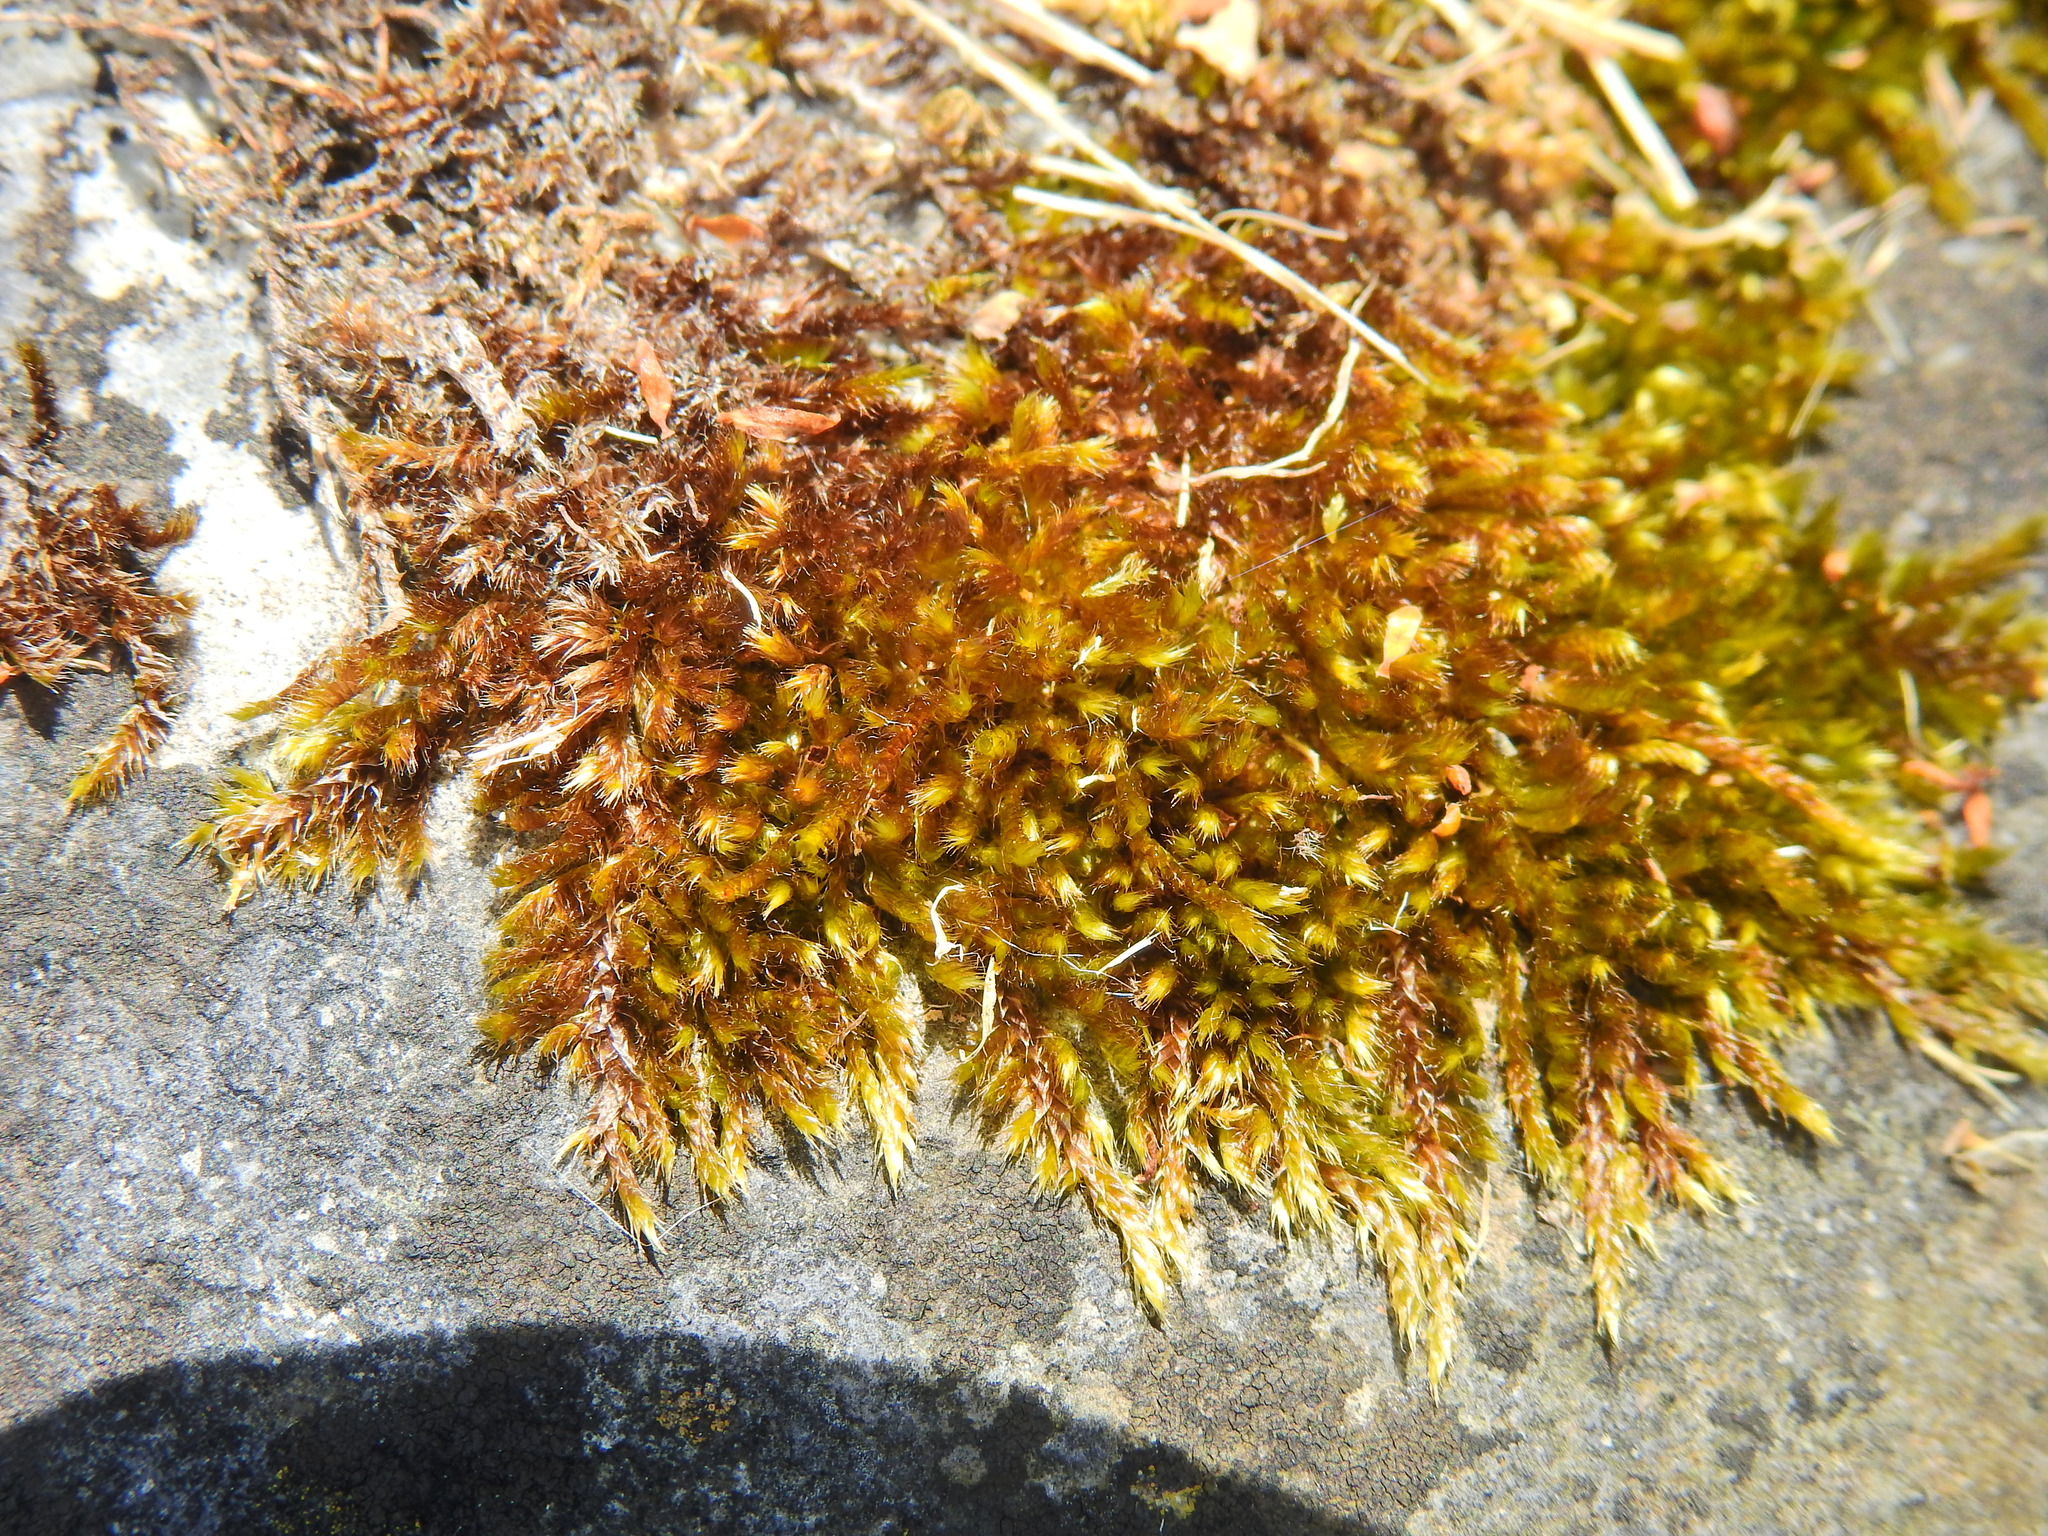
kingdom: Plantae
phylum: Bryophyta
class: Bryopsida
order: Hypnales
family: Brachytheciaceae
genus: Homalothecium
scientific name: Homalothecium sericeum
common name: Silky wall feather-moss
